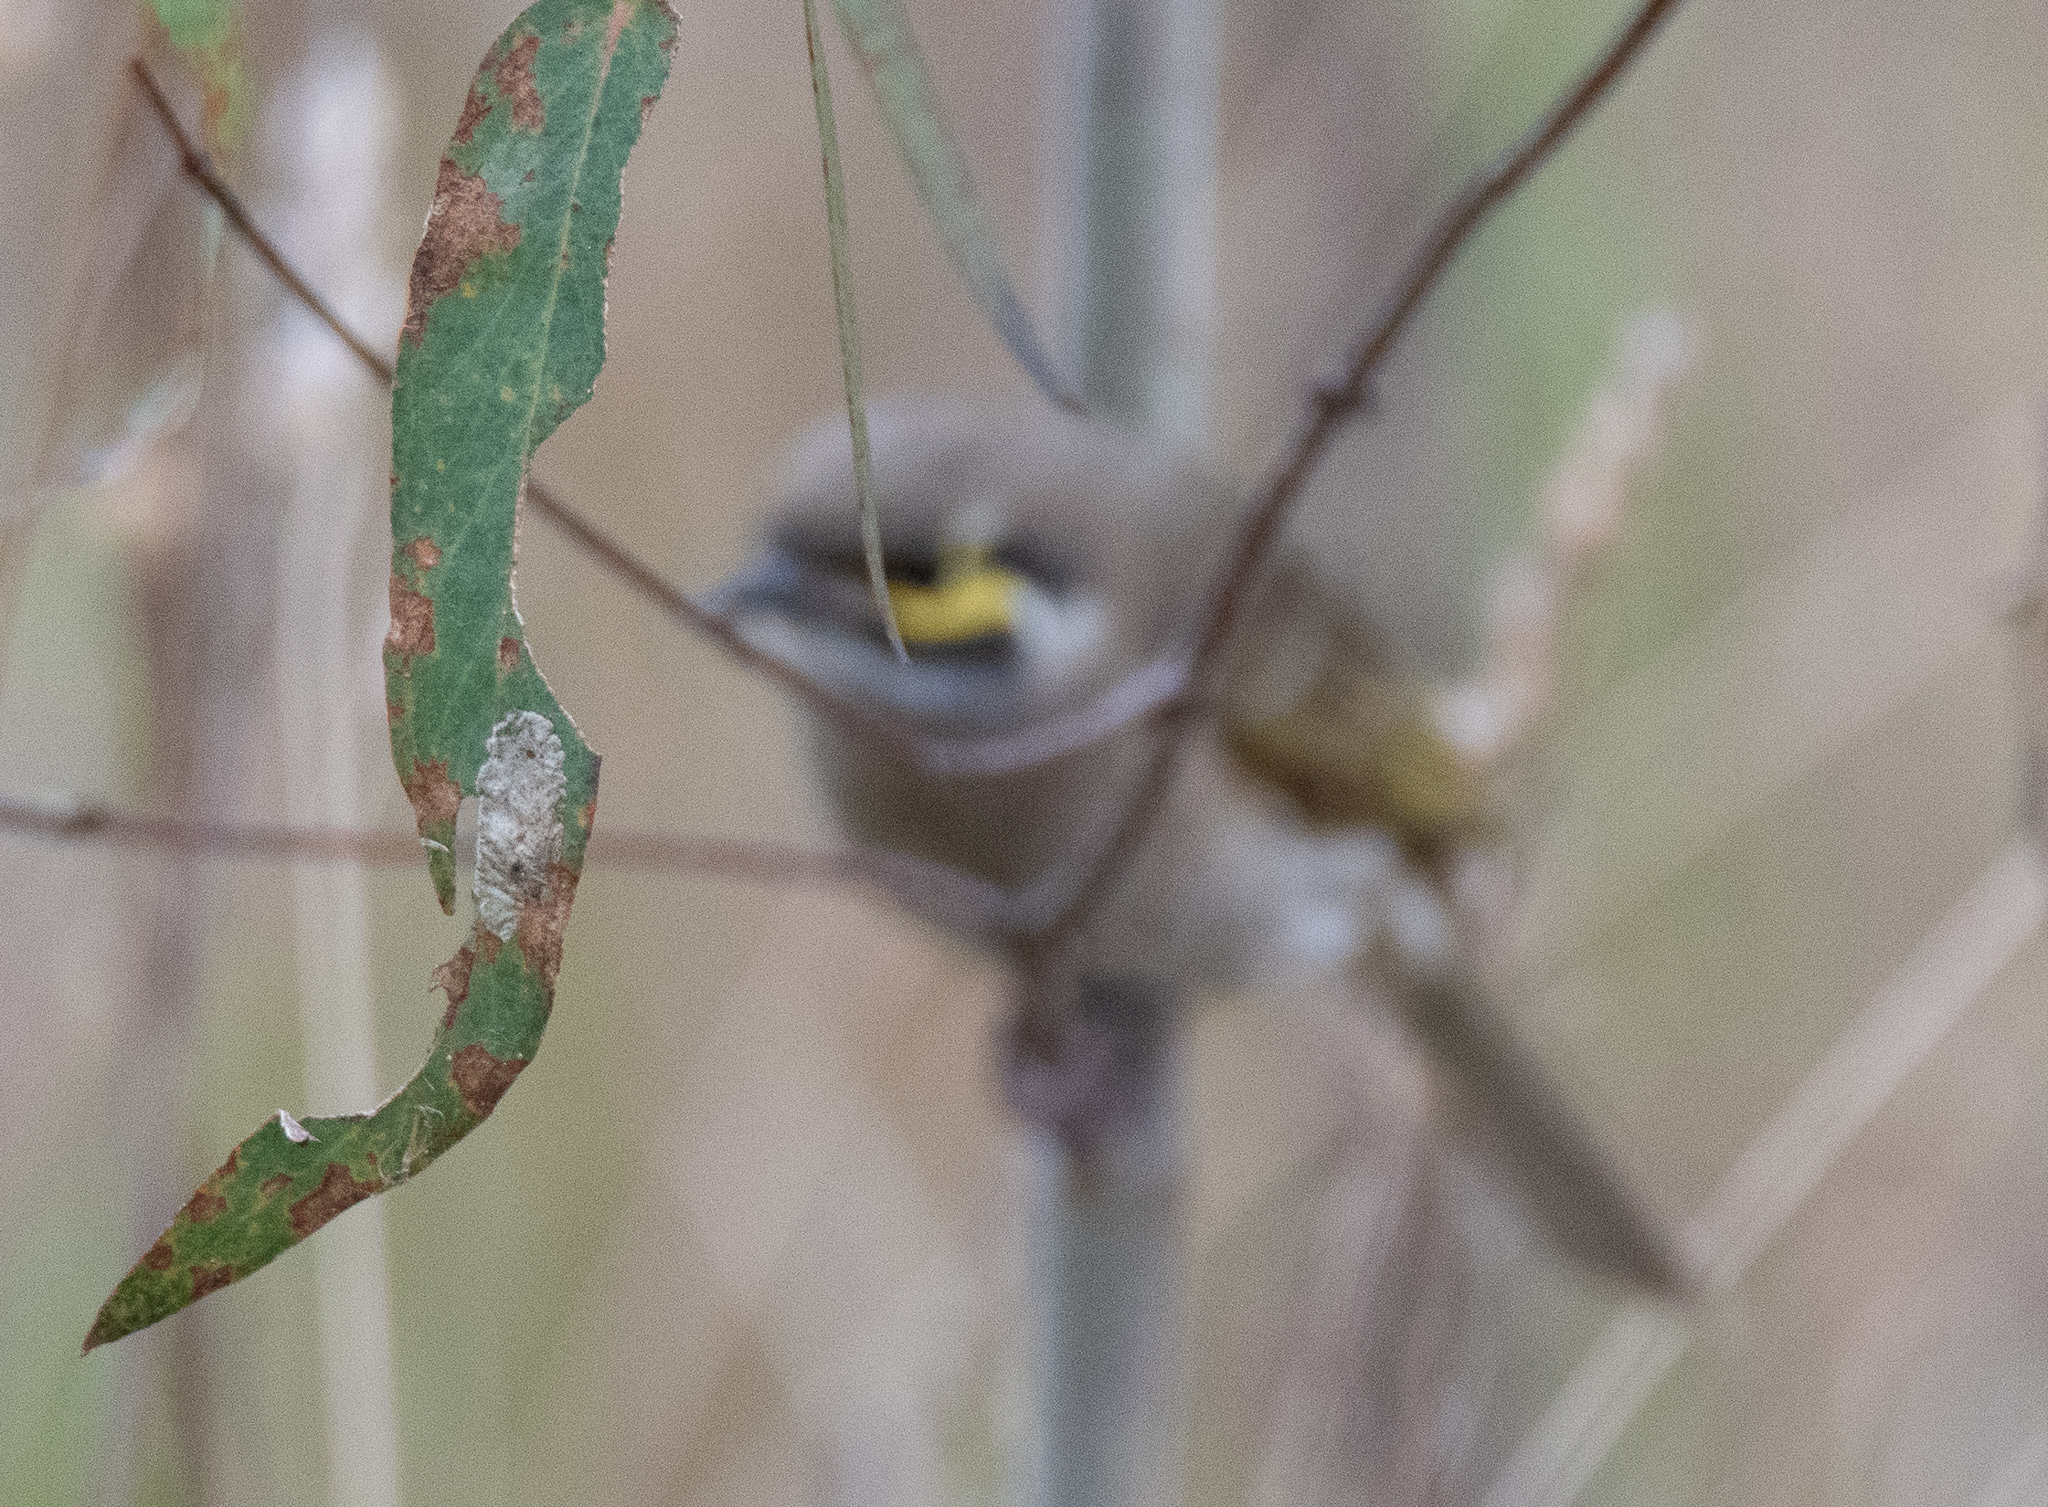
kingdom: Animalia
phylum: Chordata
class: Aves
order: Passeriformes
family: Meliphagidae
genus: Caligavis
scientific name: Caligavis chrysops
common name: Yellow-faced honeyeater
